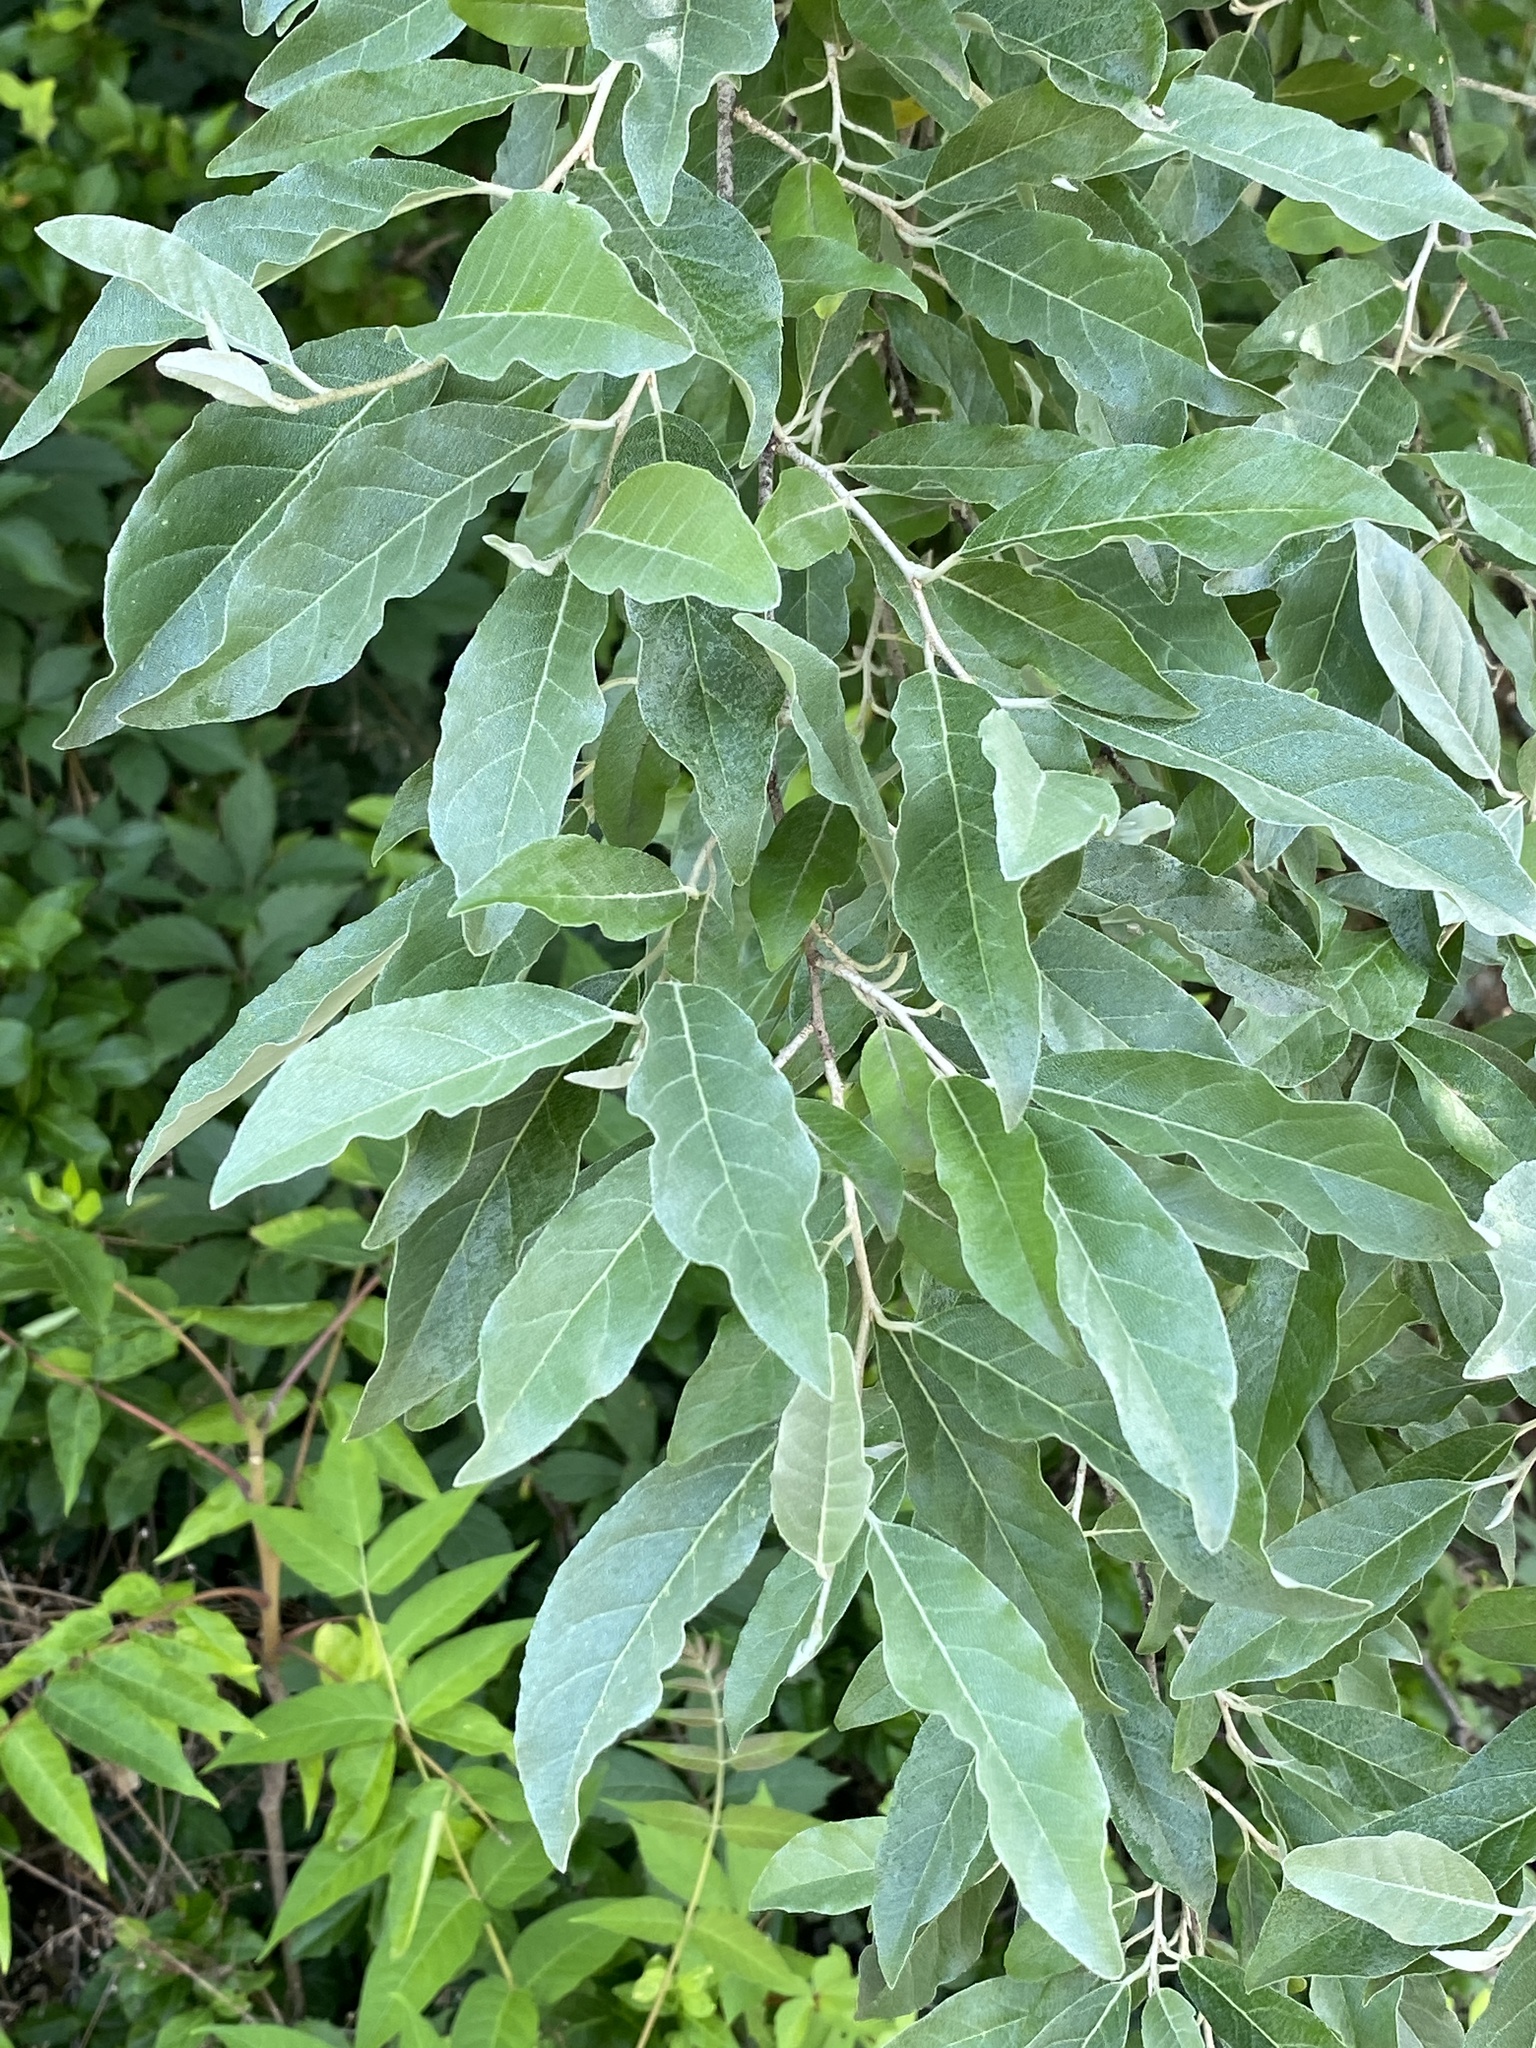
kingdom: Plantae
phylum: Tracheophyta
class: Magnoliopsida
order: Rosales
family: Elaeagnaceae
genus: Elaeagnus
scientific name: Elaeagnus umbellata
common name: Autumn olive
